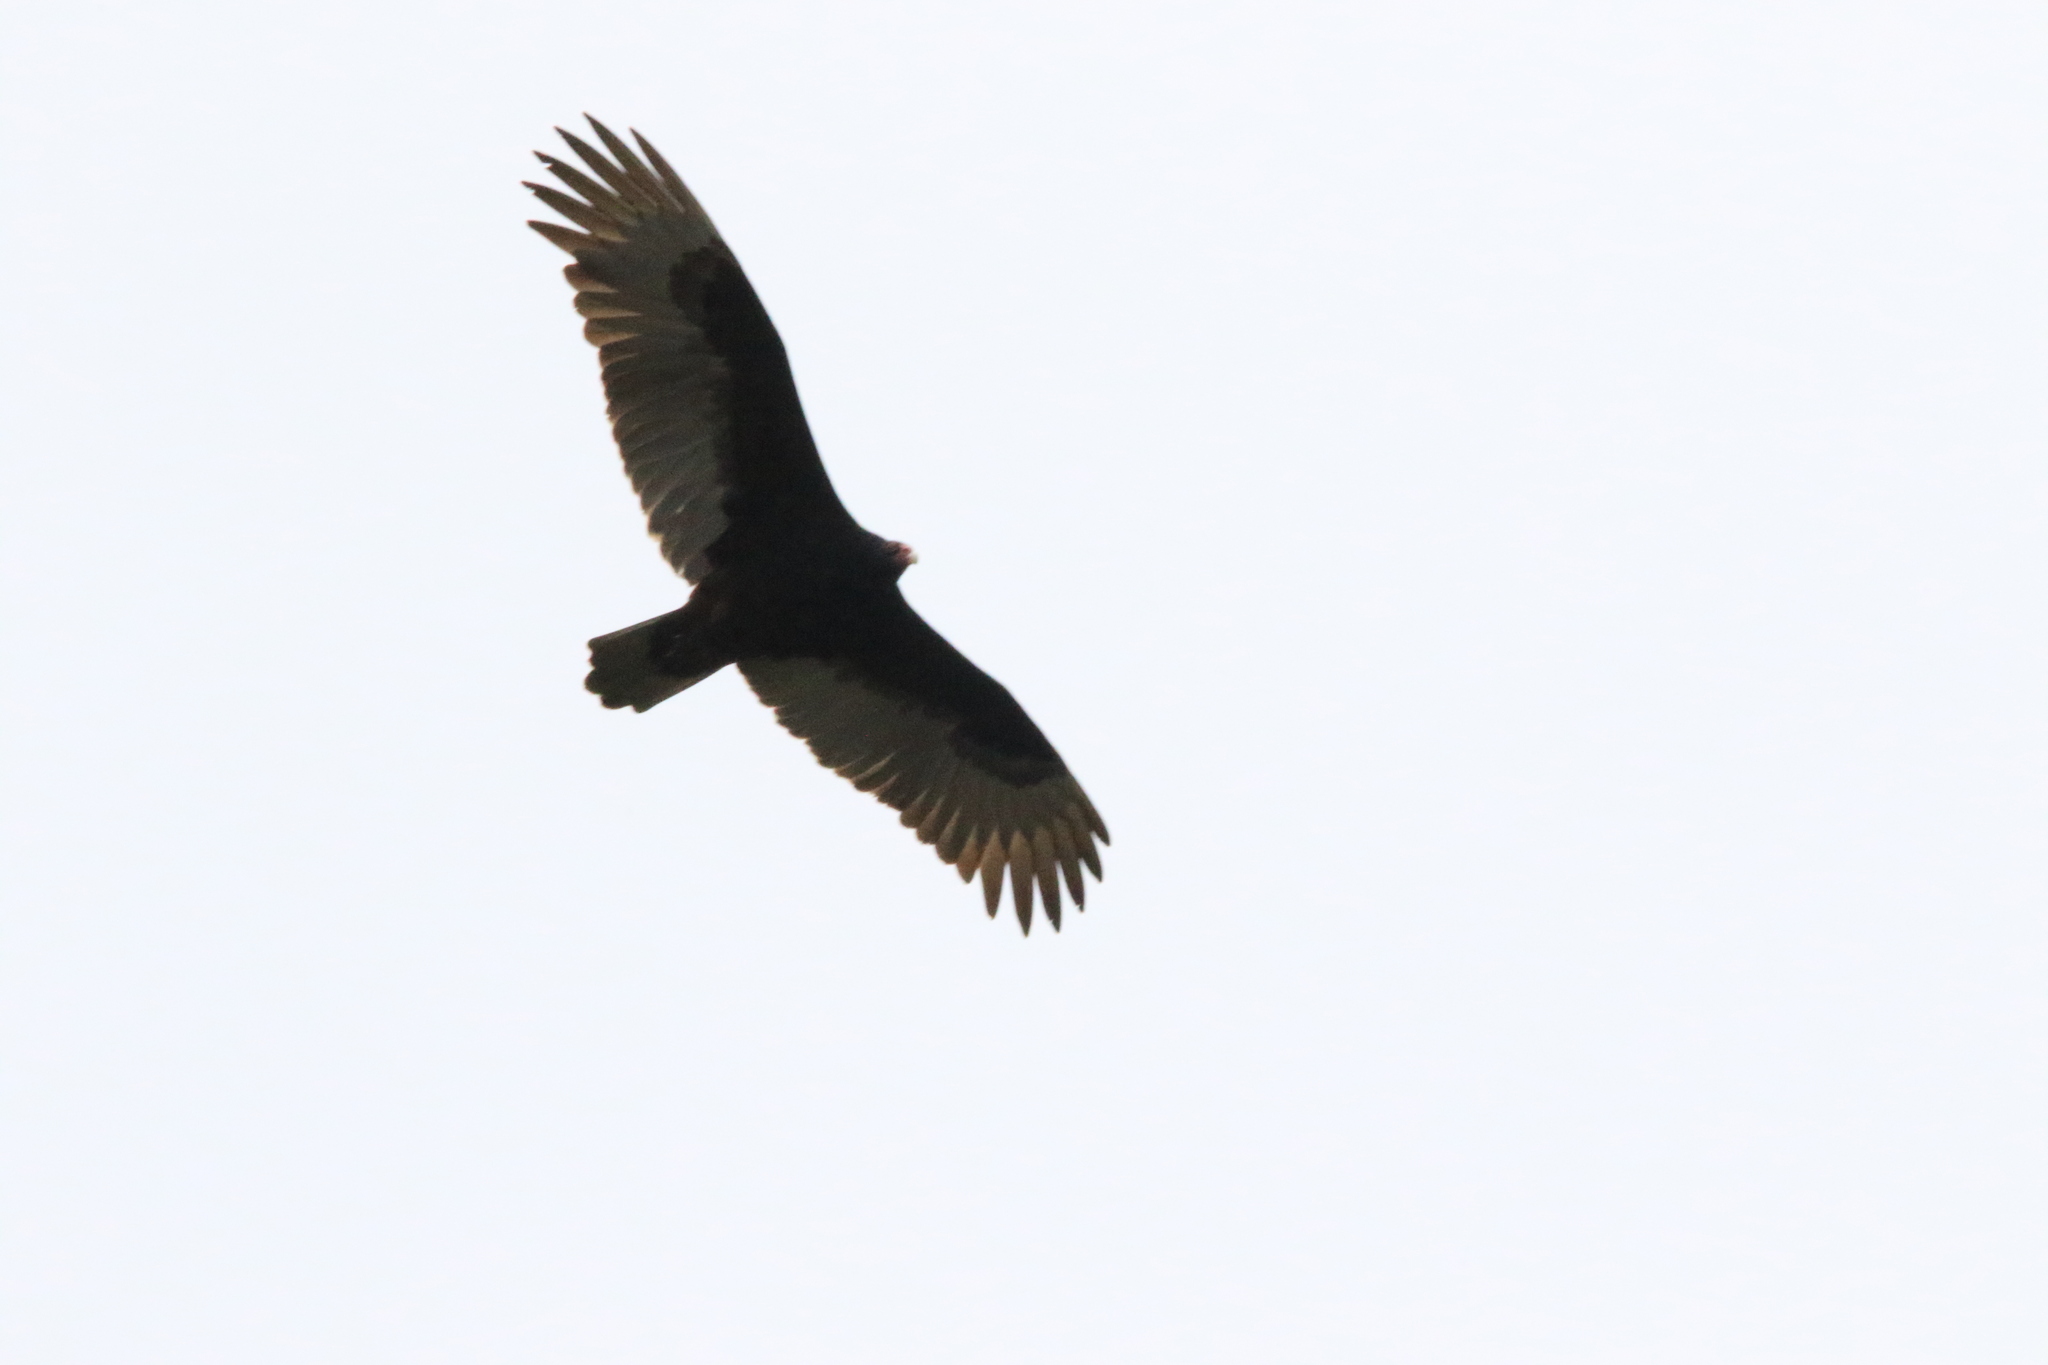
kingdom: Animalia
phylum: Chordata
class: Aves
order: Accipitriformes
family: Cathartidae
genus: Cathartes
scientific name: Cathartes aura
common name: Turkey vulture
